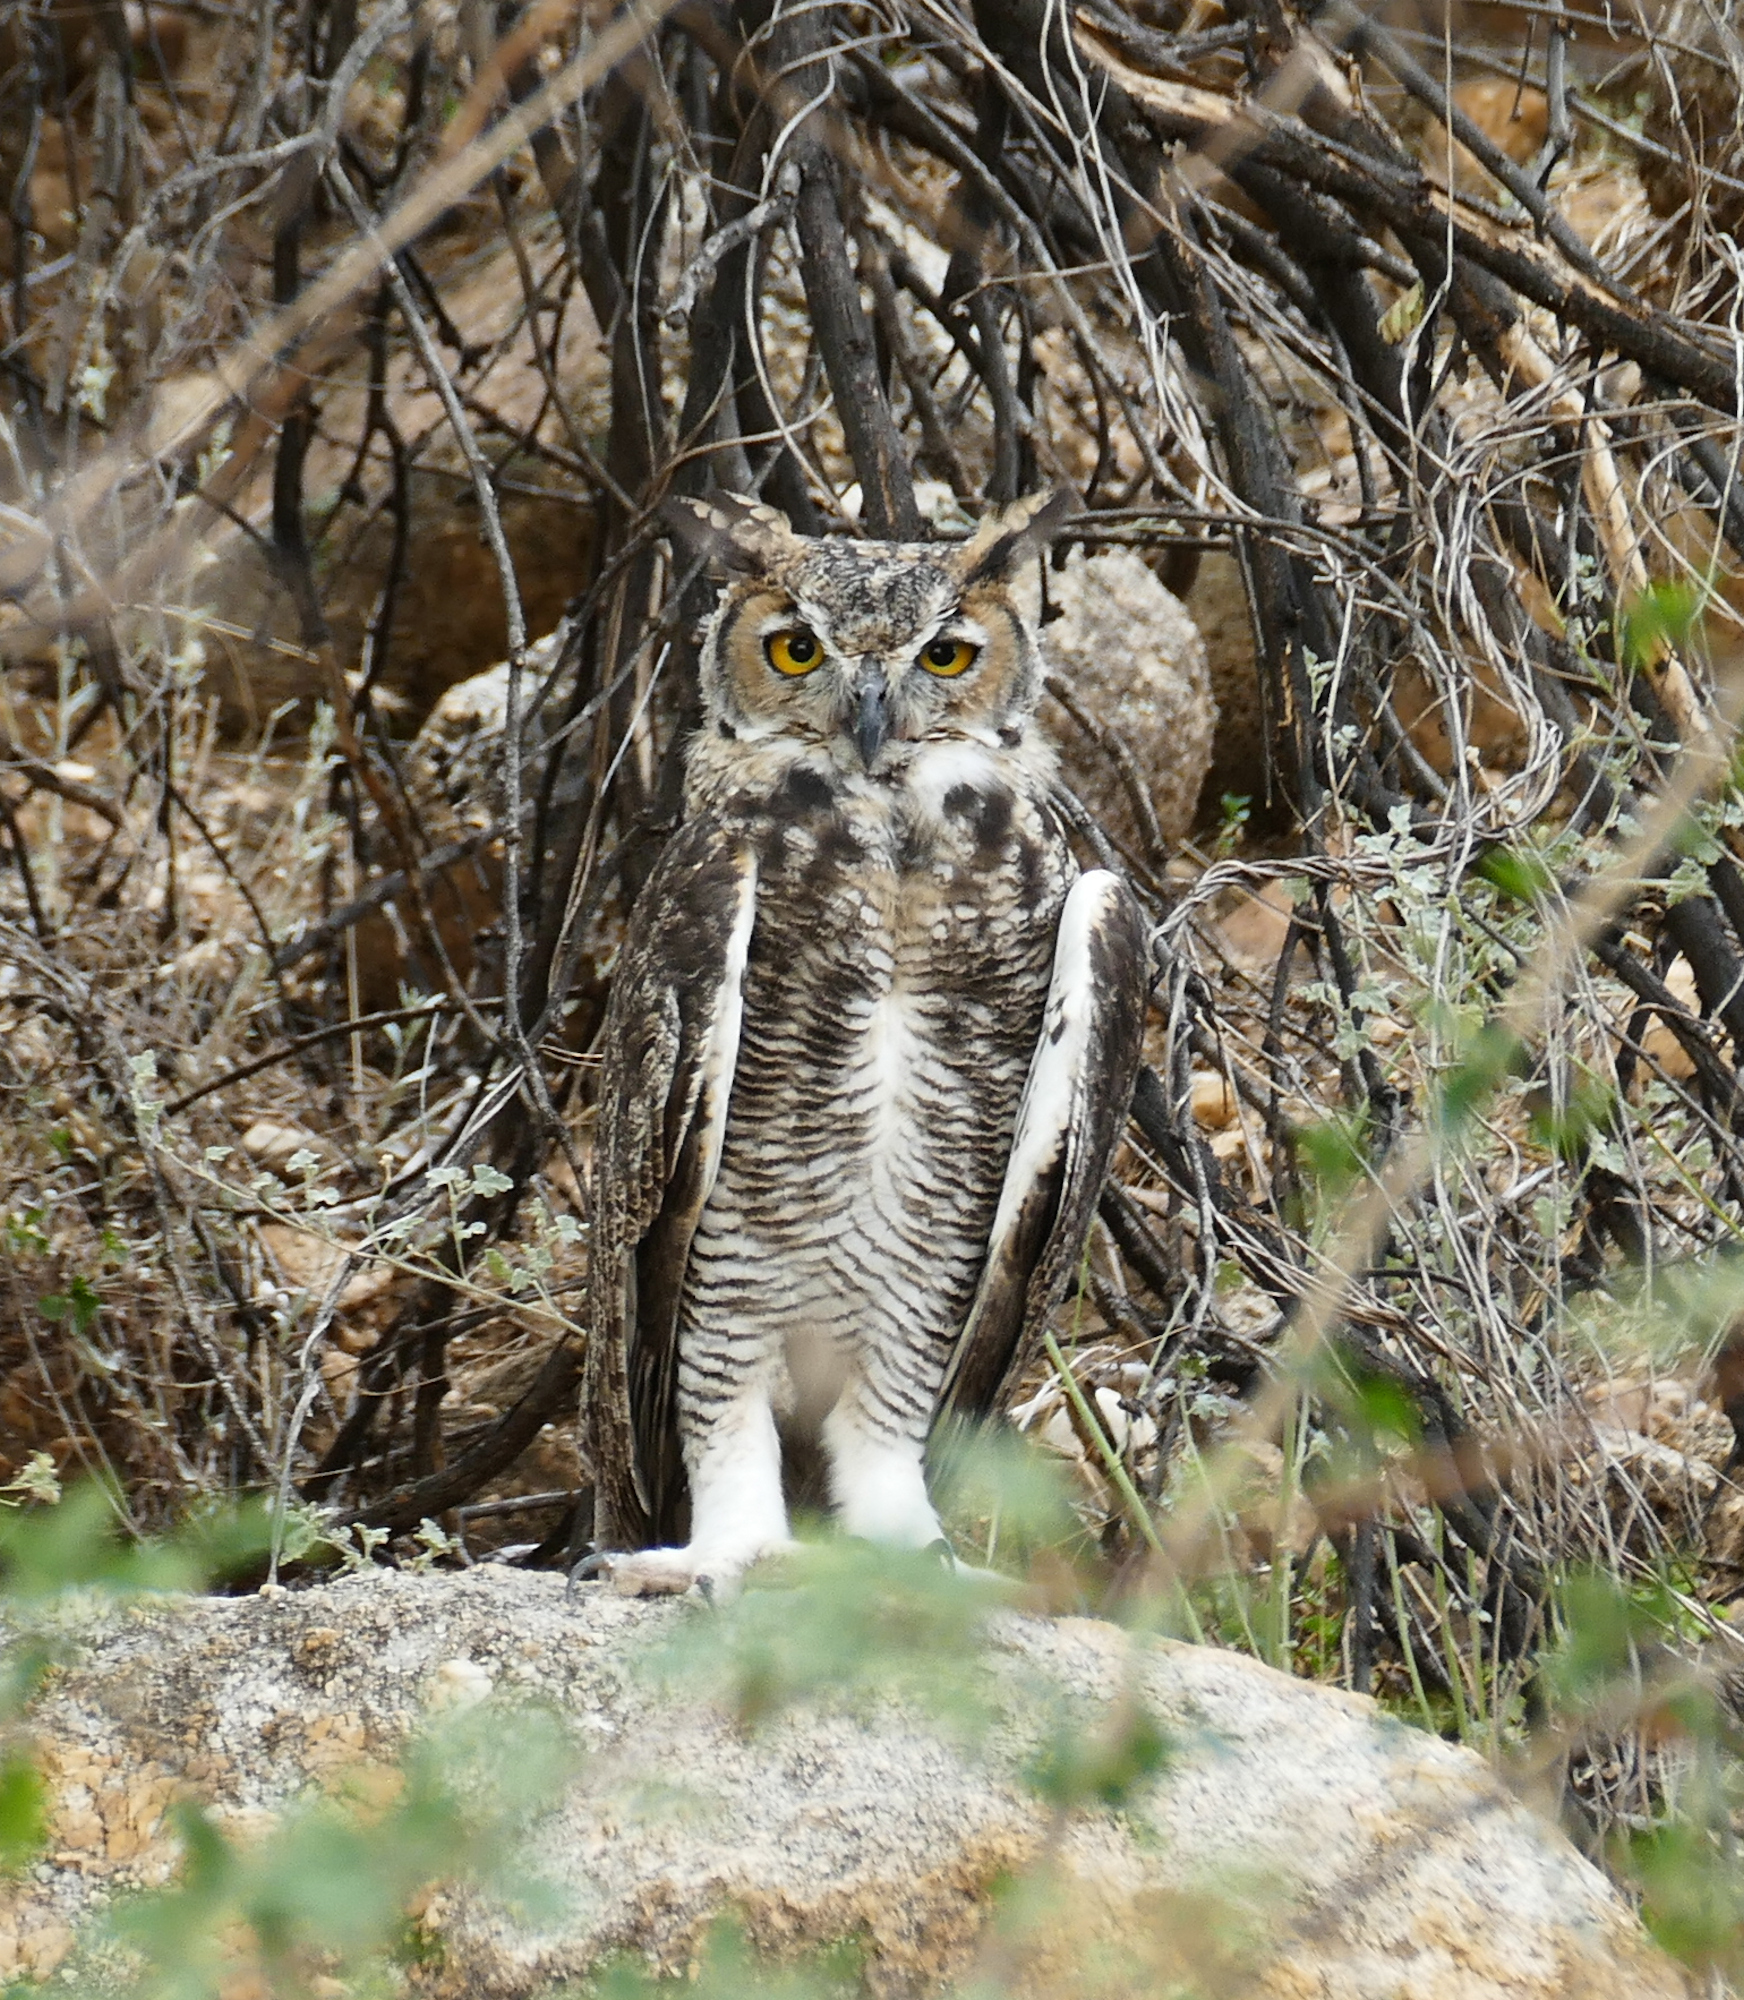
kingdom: Animalia
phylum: Chordata
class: Aves
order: Strigiformes
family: Strigidae
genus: Bubo
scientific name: Bubo virginianus
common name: Great horned owl
